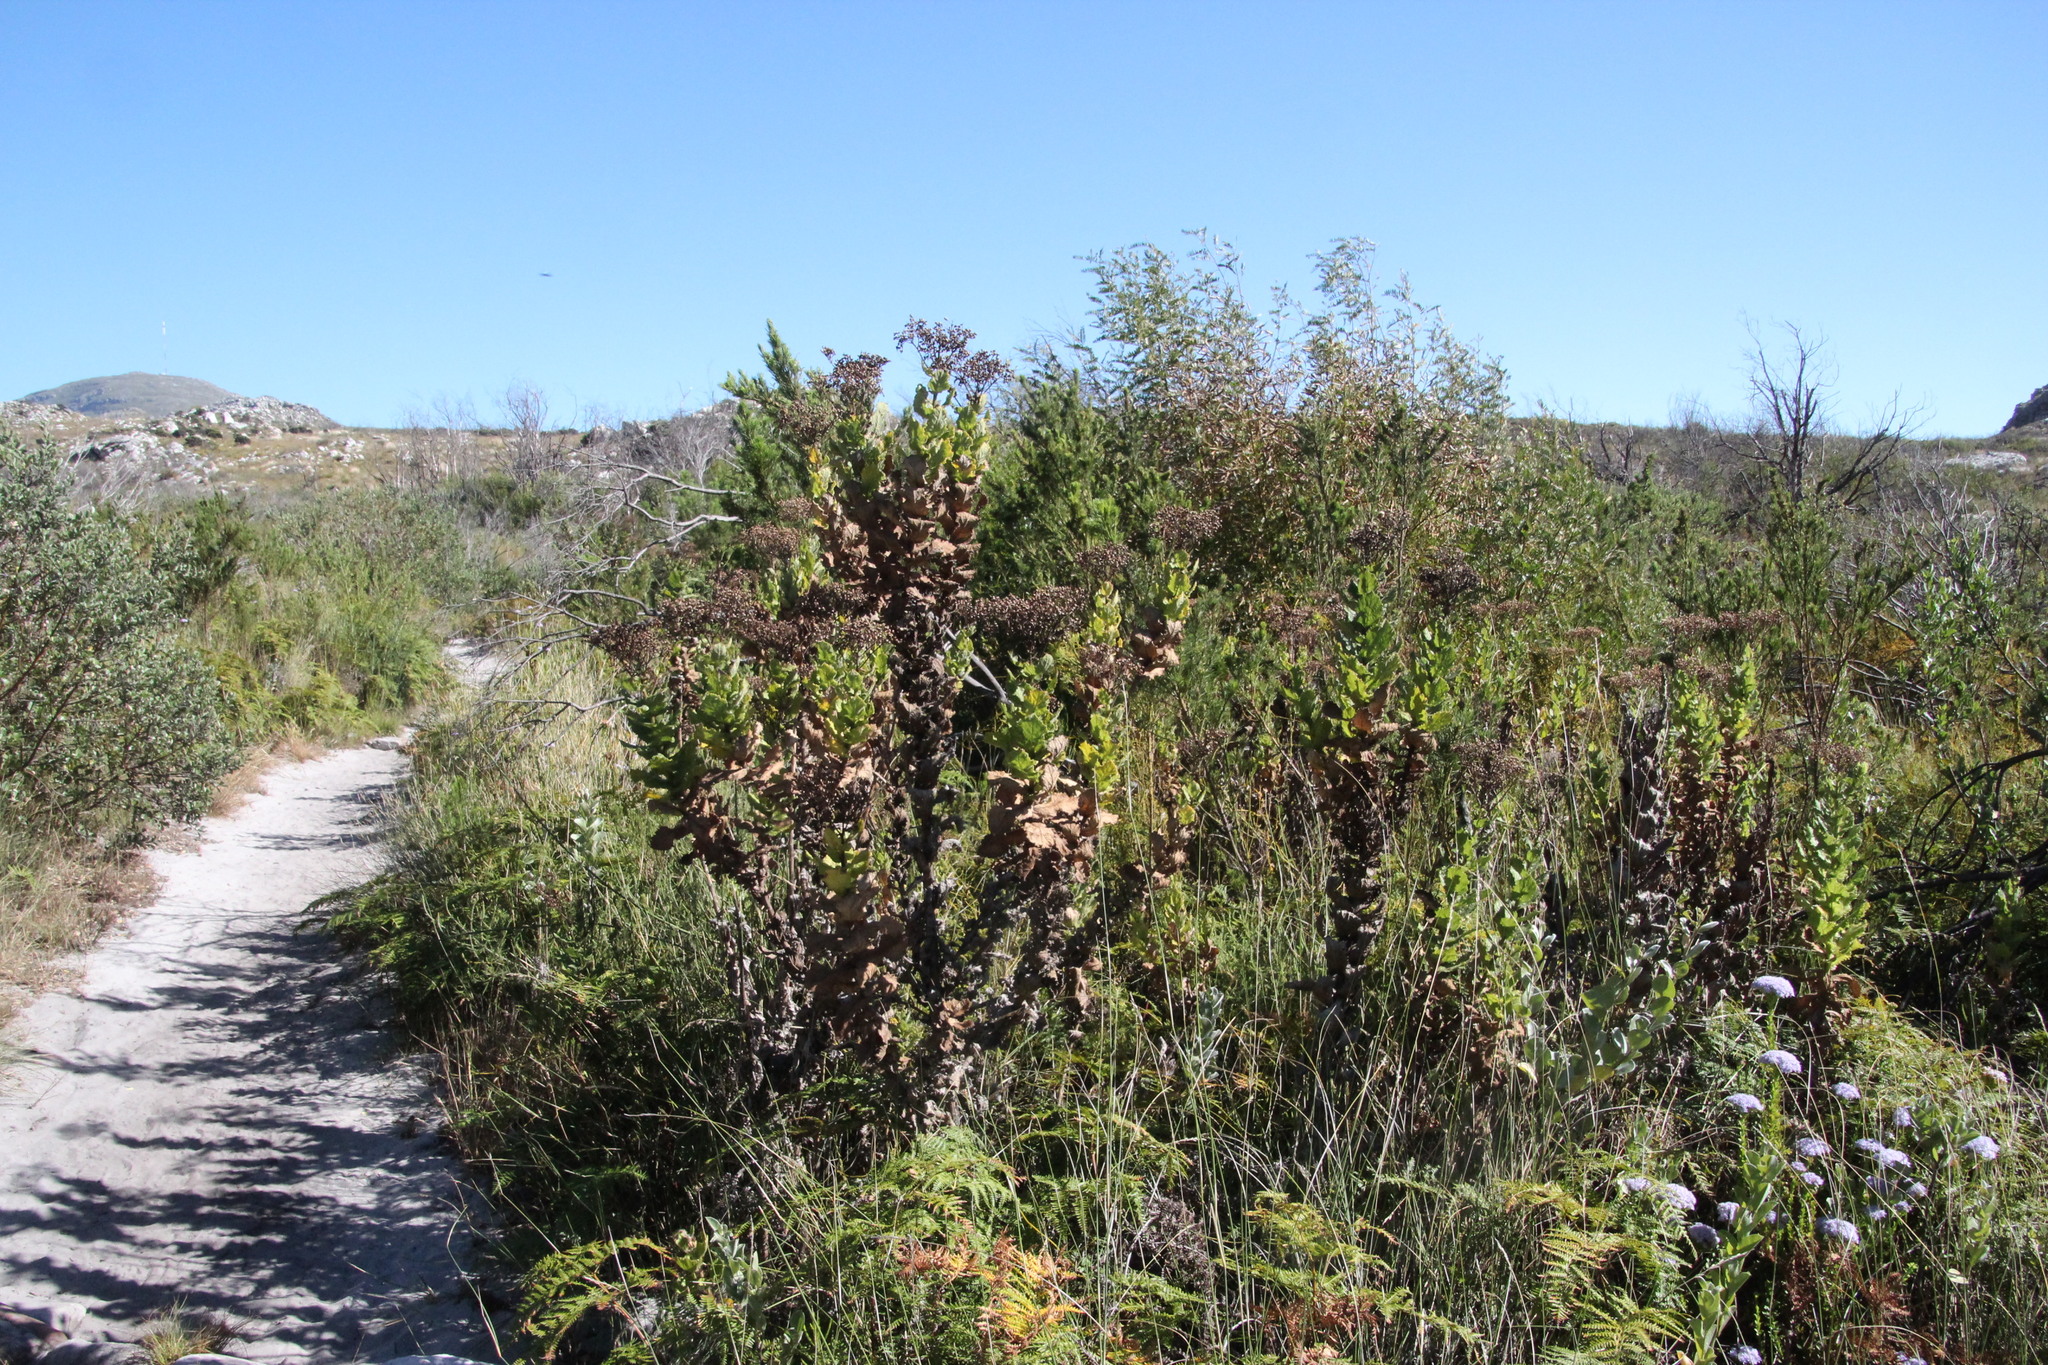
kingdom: Plantae
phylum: Tracheophyta
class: Magnoliopsida
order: Asterales
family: Asteraceae
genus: Senecio
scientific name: Senecio rigidus
